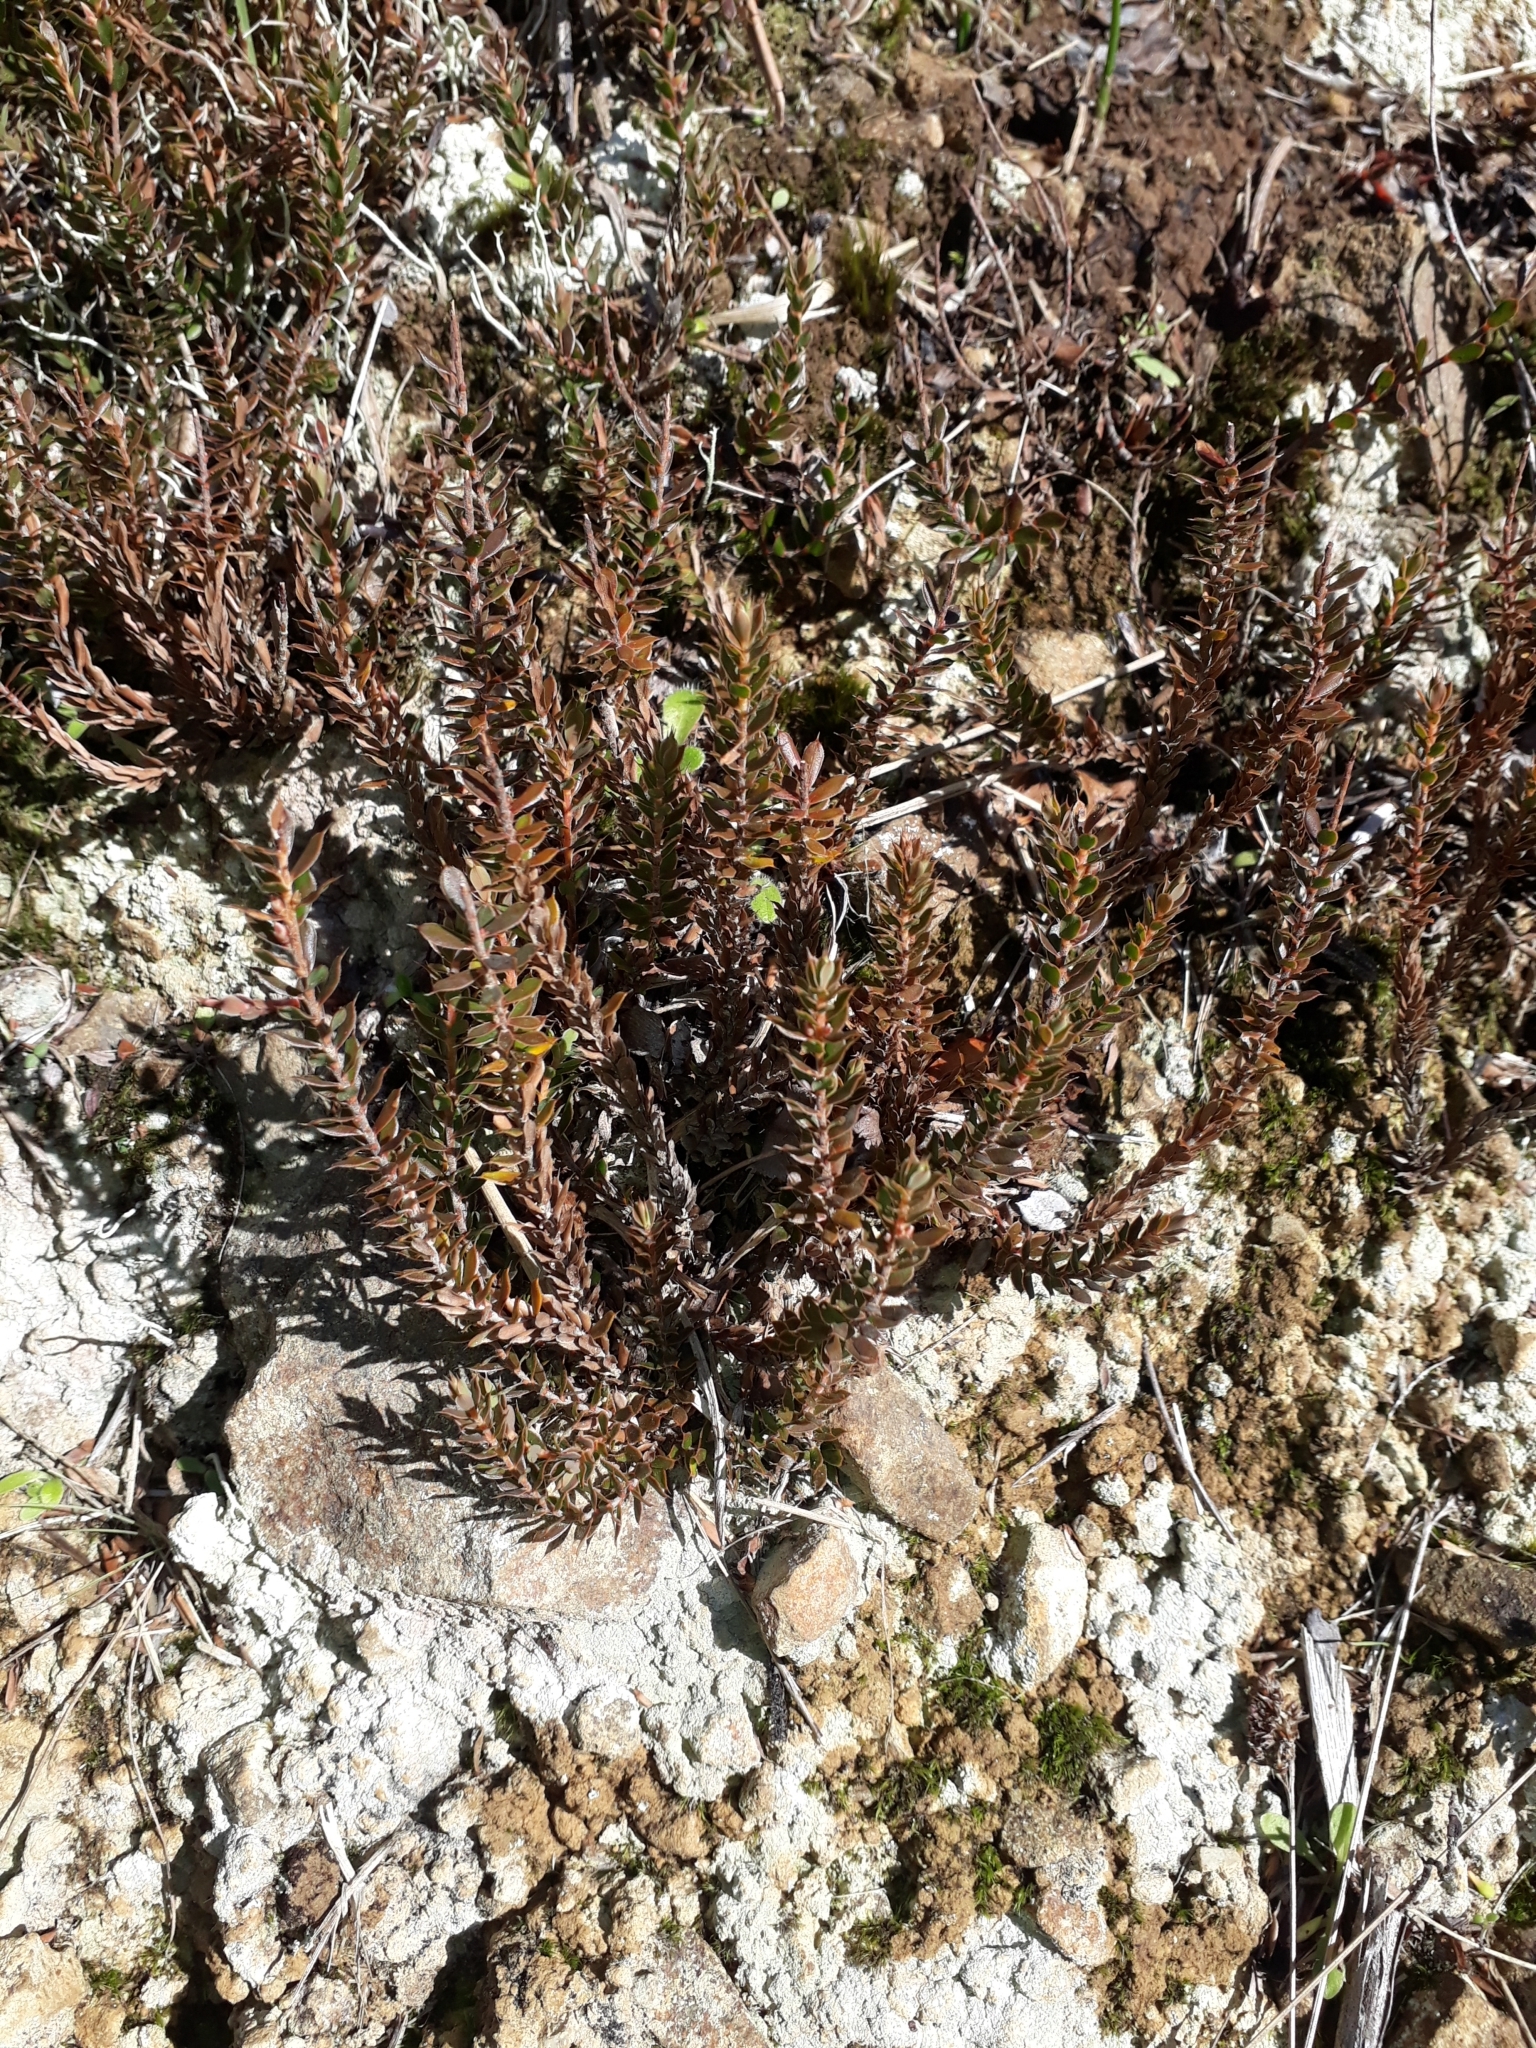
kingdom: Plantae
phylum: Tracheophyta
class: Magnoliopsida
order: Ericales
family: Ericaceae
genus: Styphelia
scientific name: Styphelia nesophila
